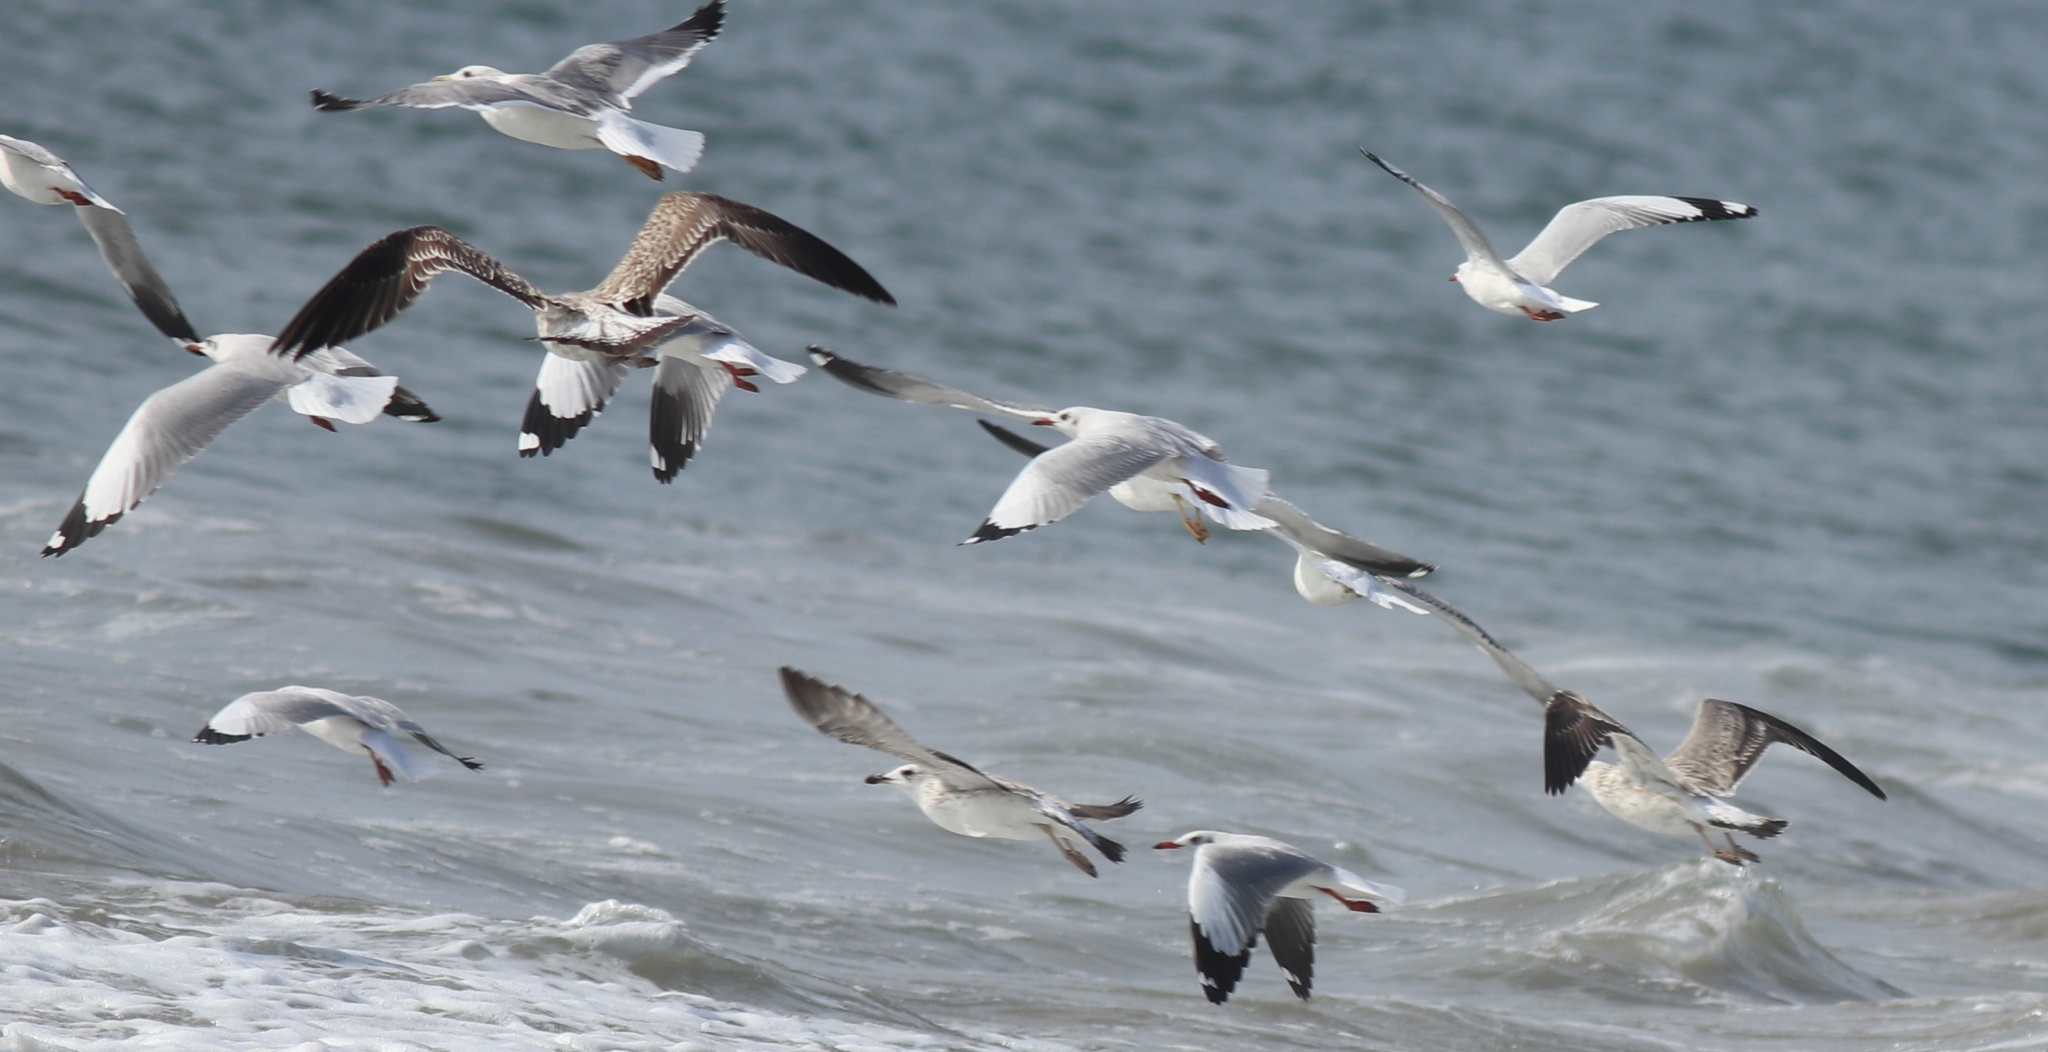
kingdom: Animalia
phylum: Chordata
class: Aves
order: Charadriiformes
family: Laridae
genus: Chroicocephalus
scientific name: Chroicocephalus brunnicephalus
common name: Brown-headed gull
